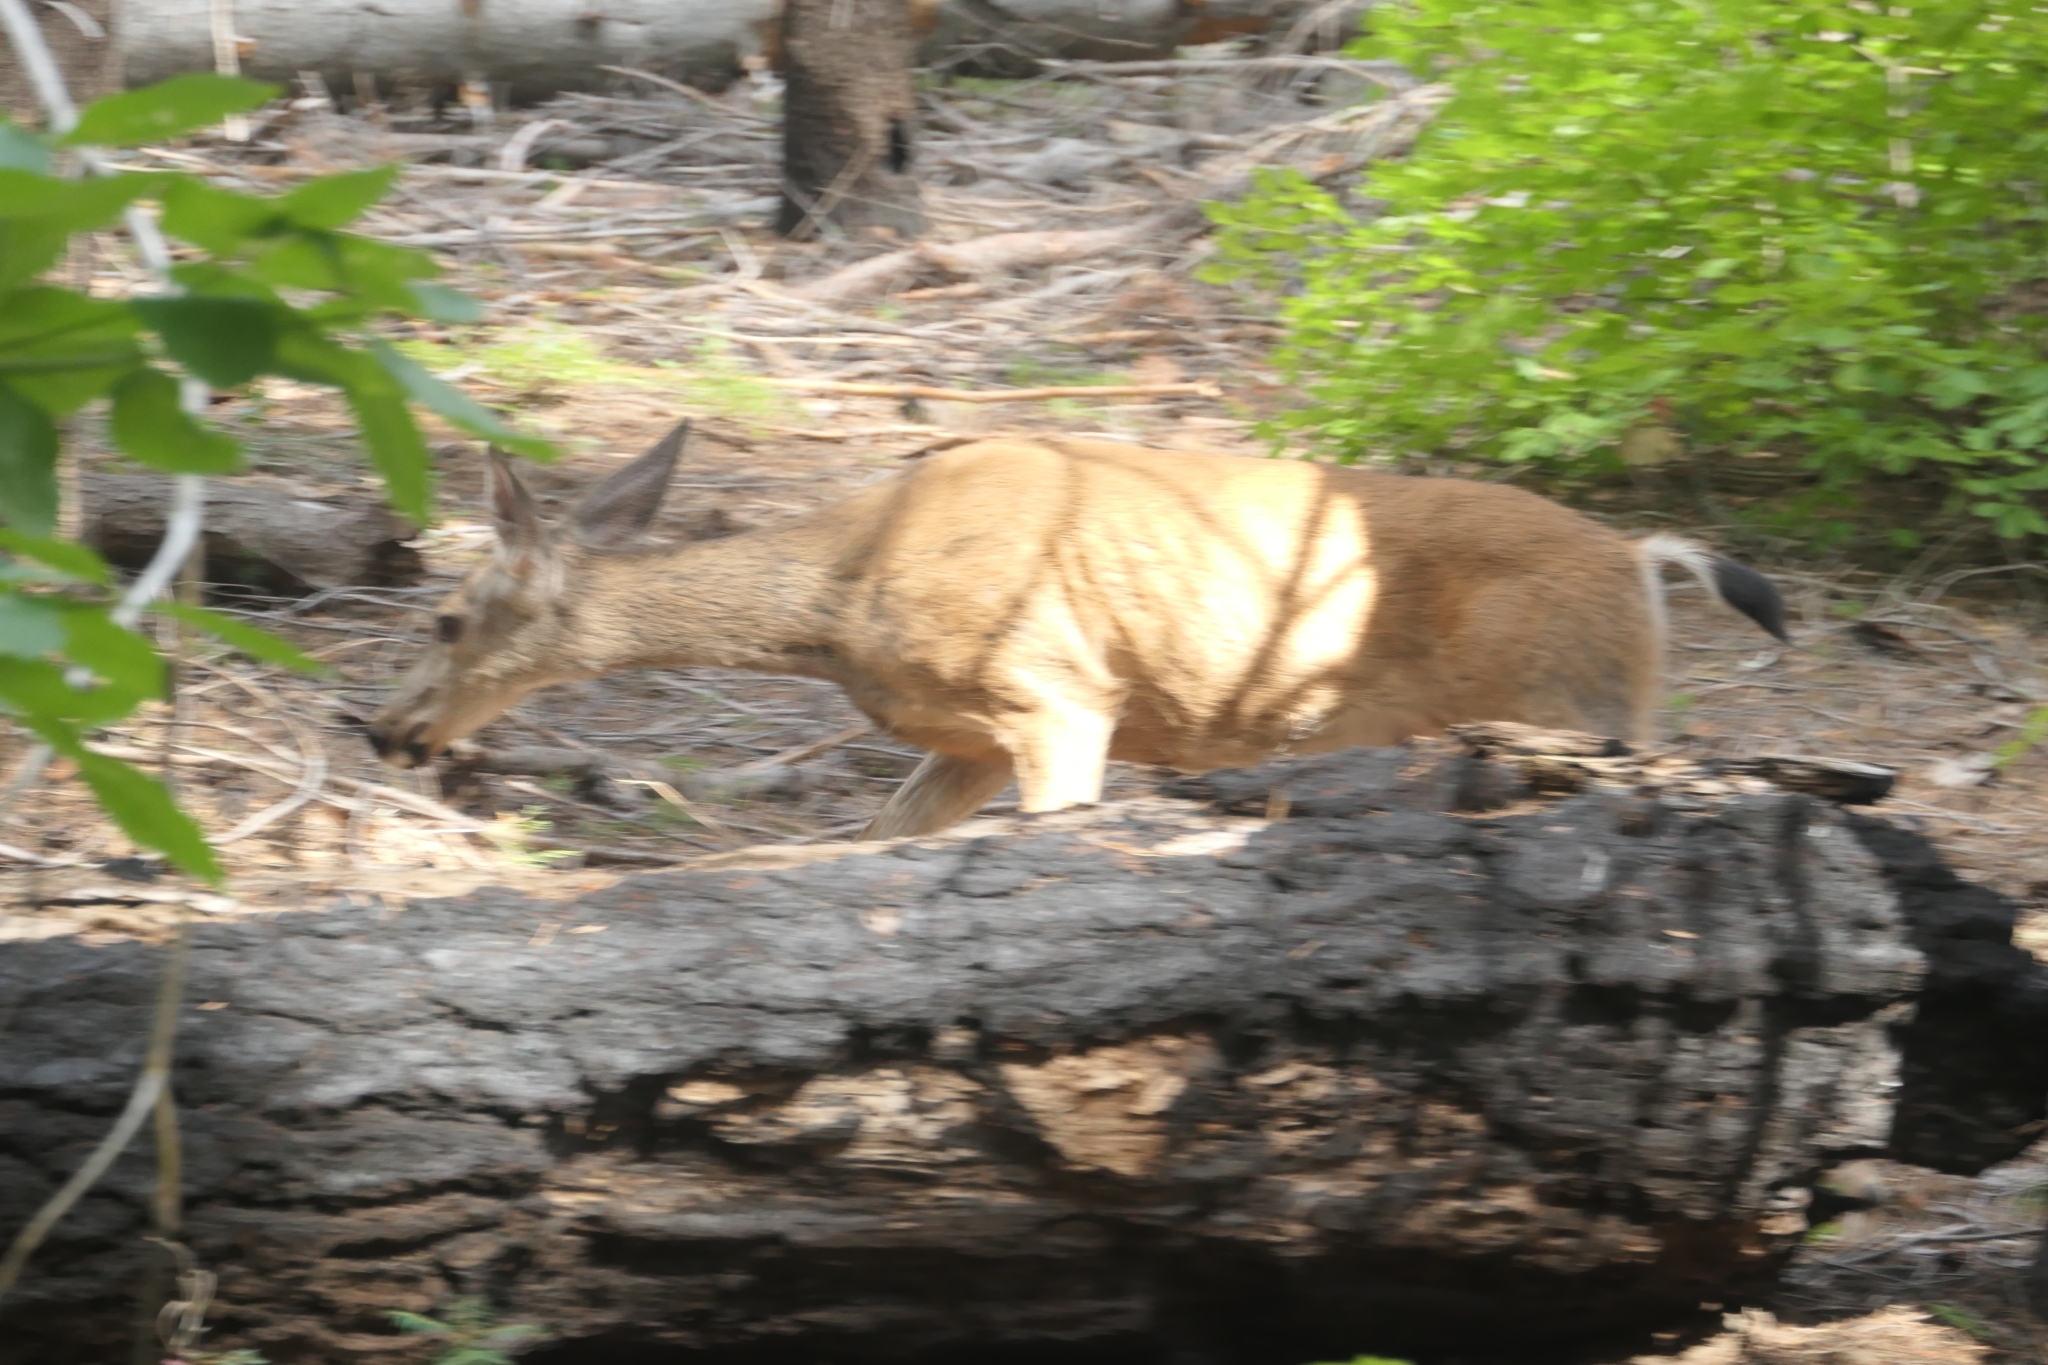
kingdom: Animalia
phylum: Chordata
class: Mammalia
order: Artiodactyla
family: Cervidae
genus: Odocoileus
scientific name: Odocoileus hemionus
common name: Mule deer
